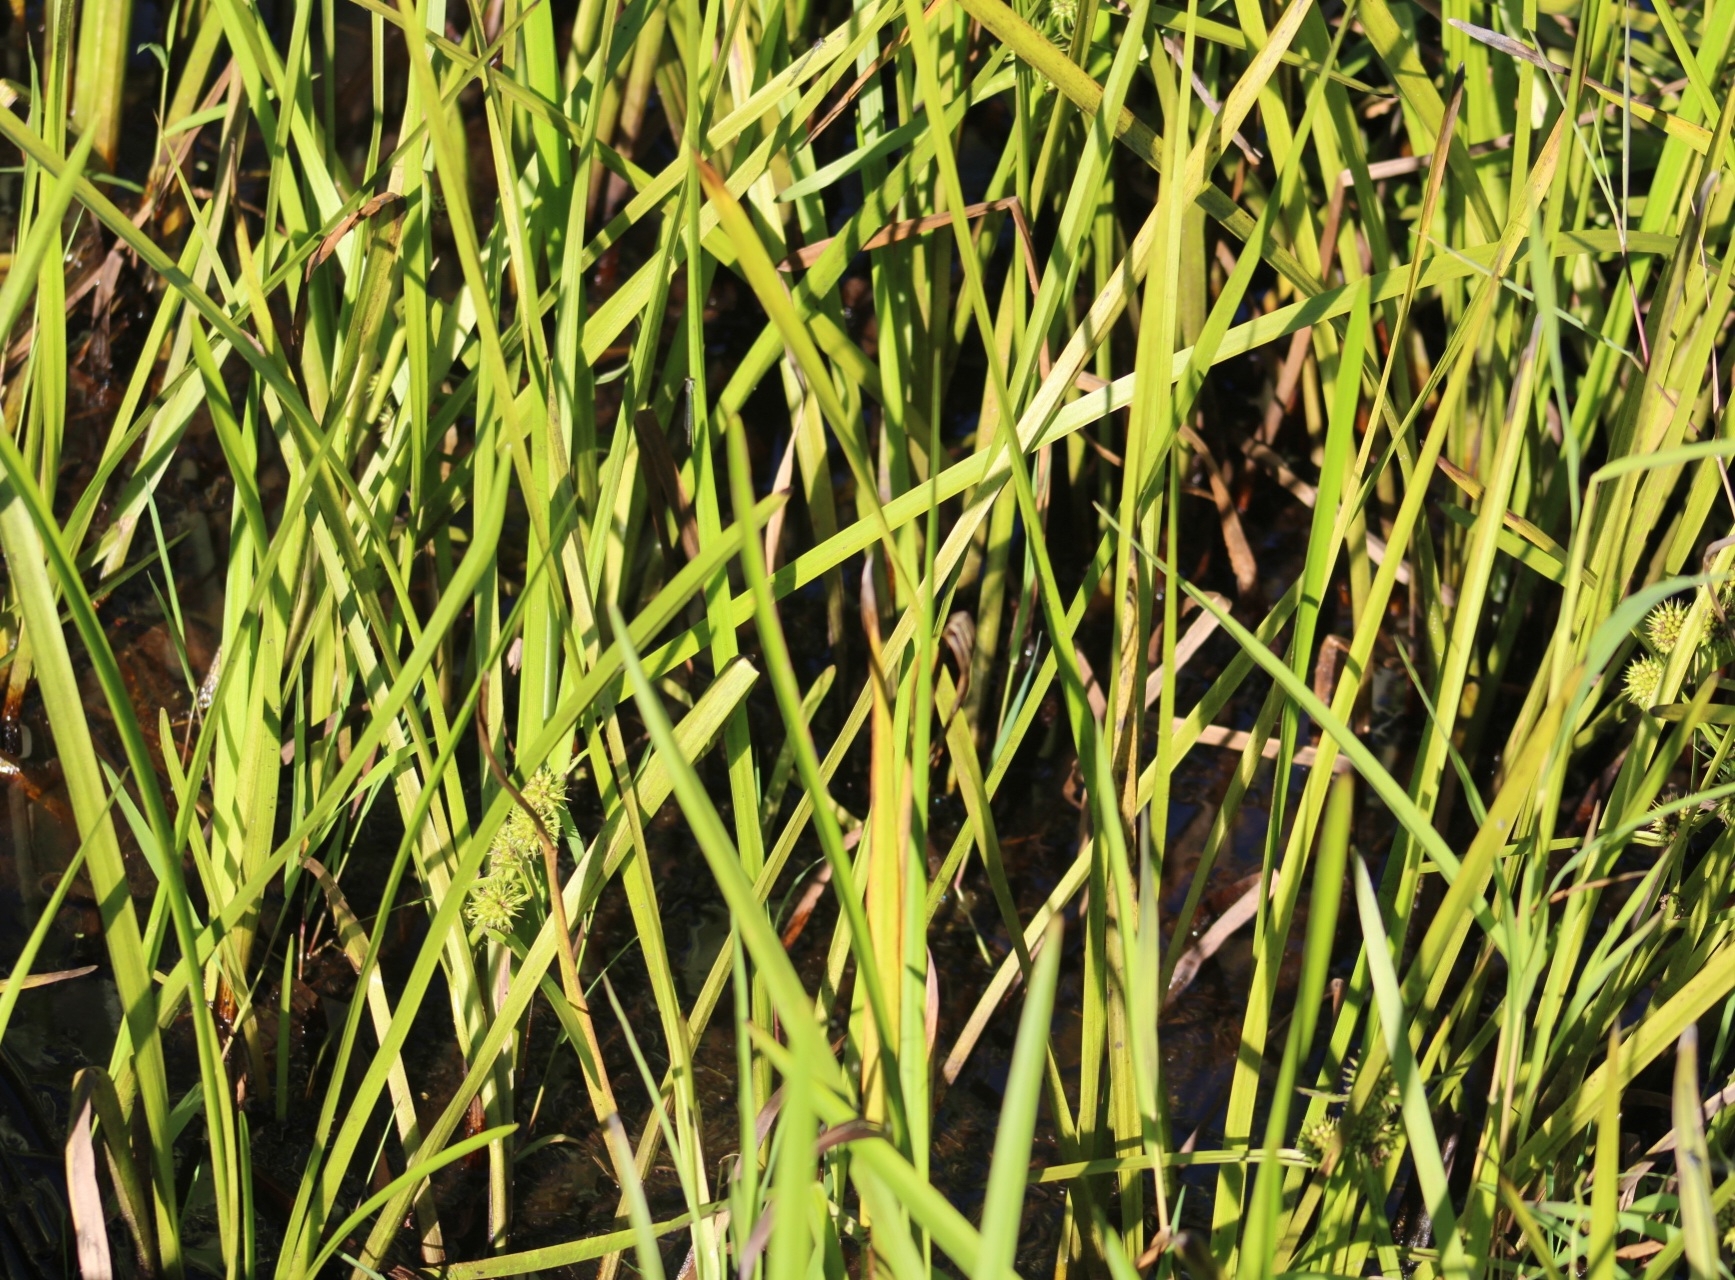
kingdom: Plantae
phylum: Tracheophyta
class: Liliopsida
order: Poales
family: Typhaceae
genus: Sparganium
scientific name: Sparganium americanum
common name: American burreed
